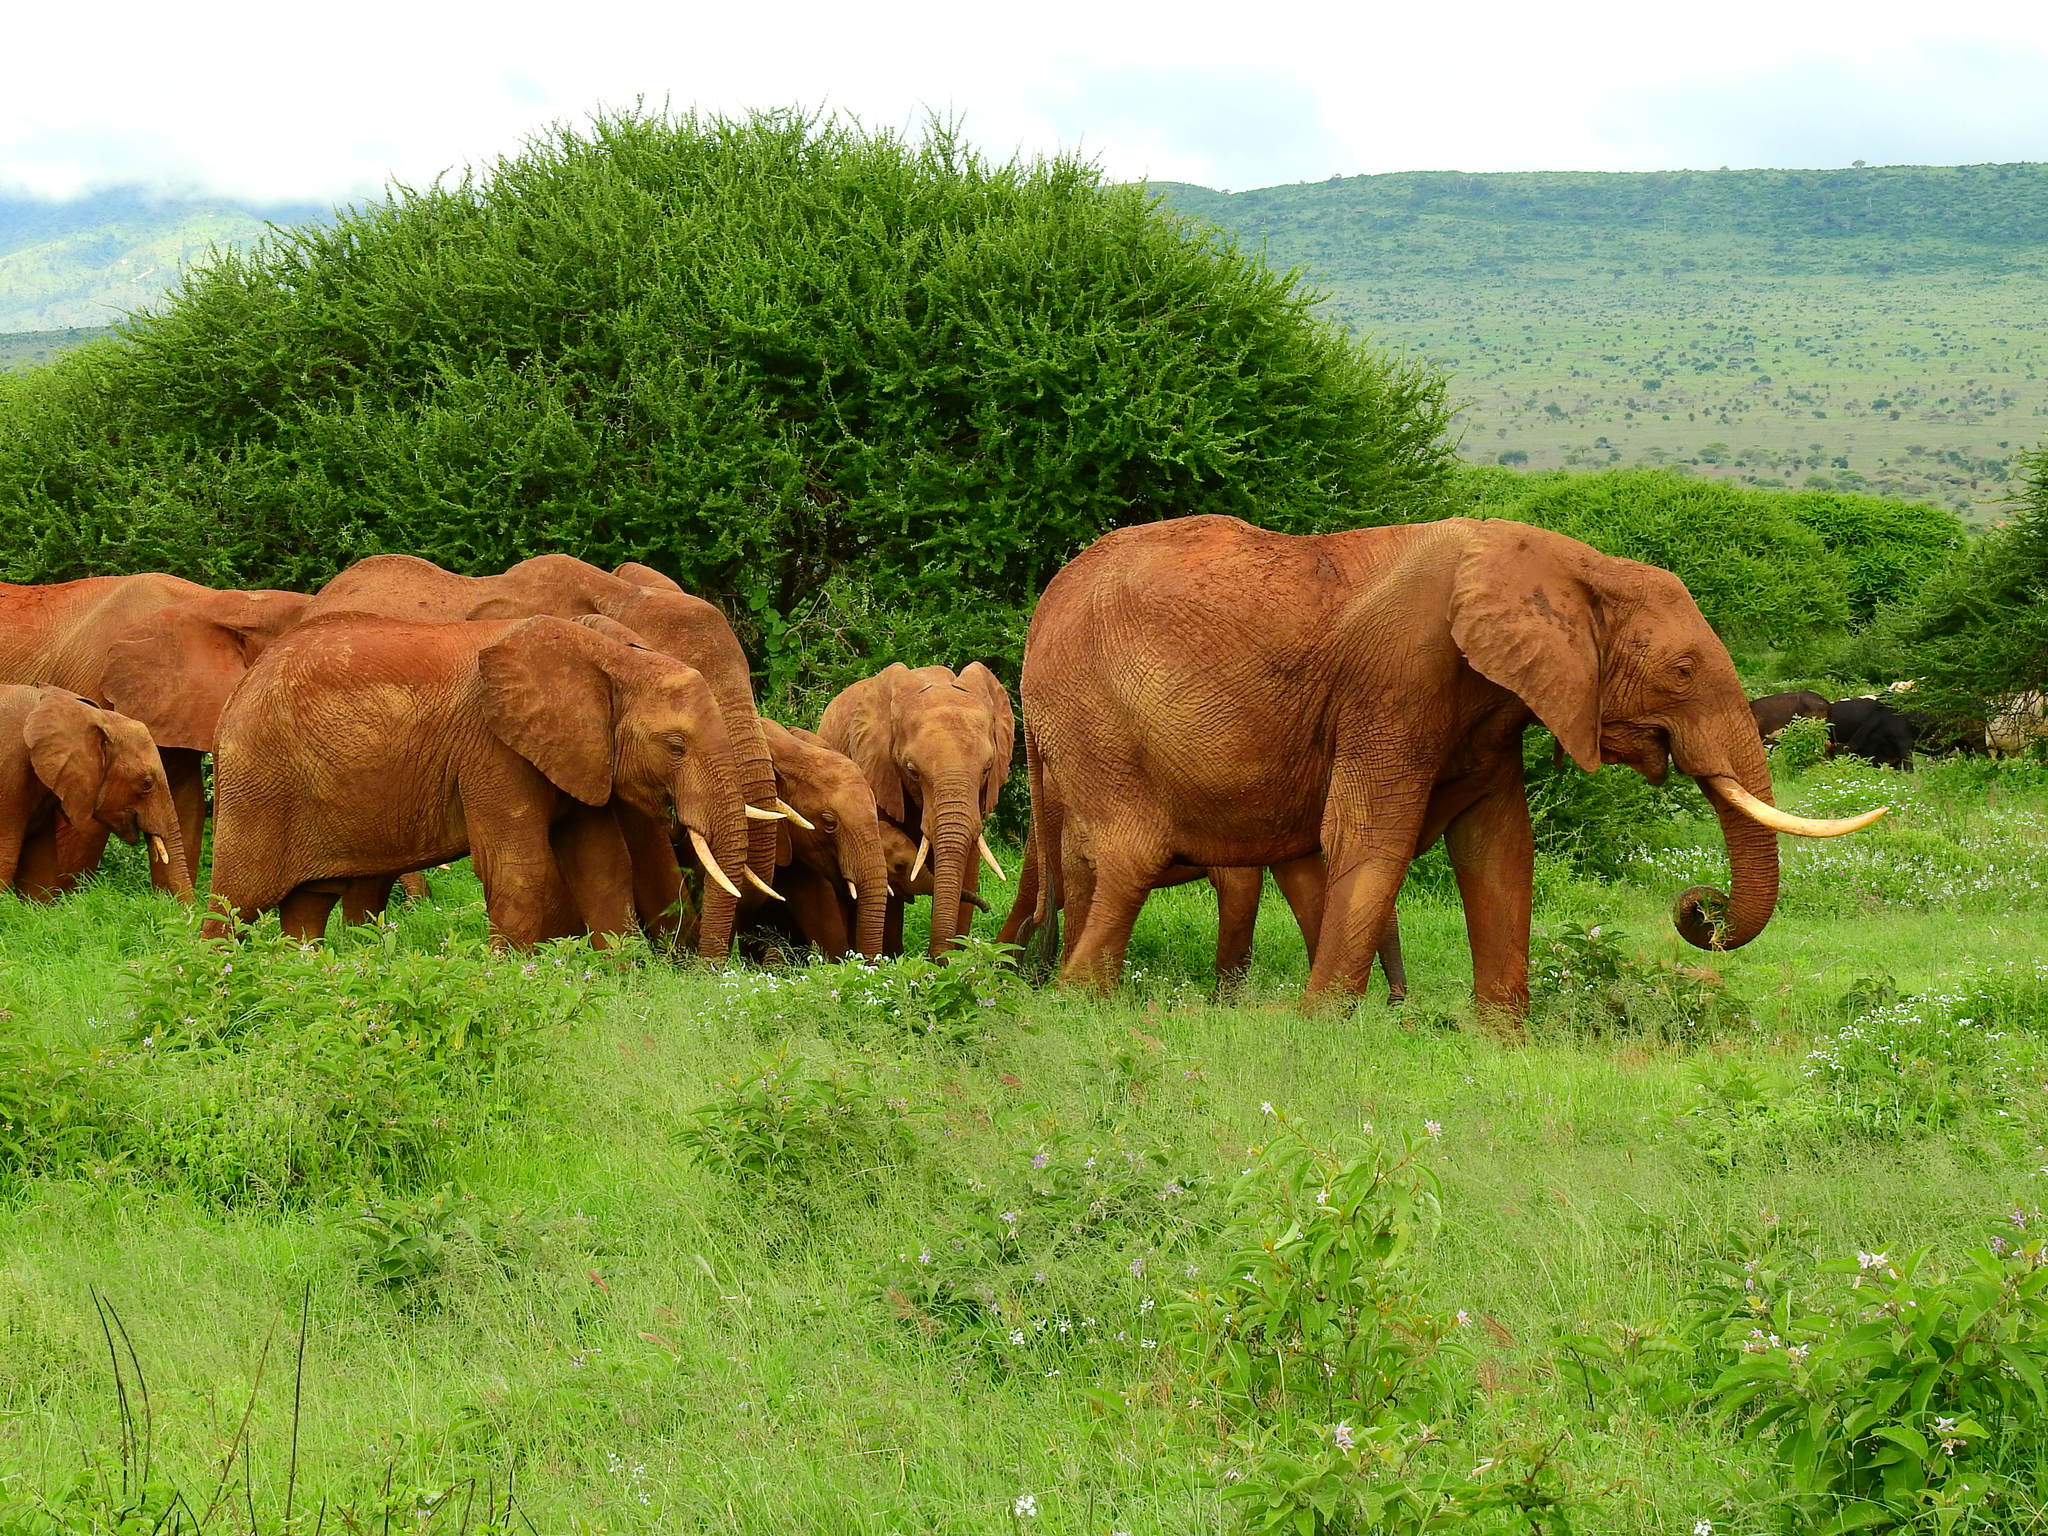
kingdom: Animalia
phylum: Chordata
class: Mammalia
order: Proboscidea
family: Elephantidae
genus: Loxodonta
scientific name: Loxodonta africana
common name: African elephant
